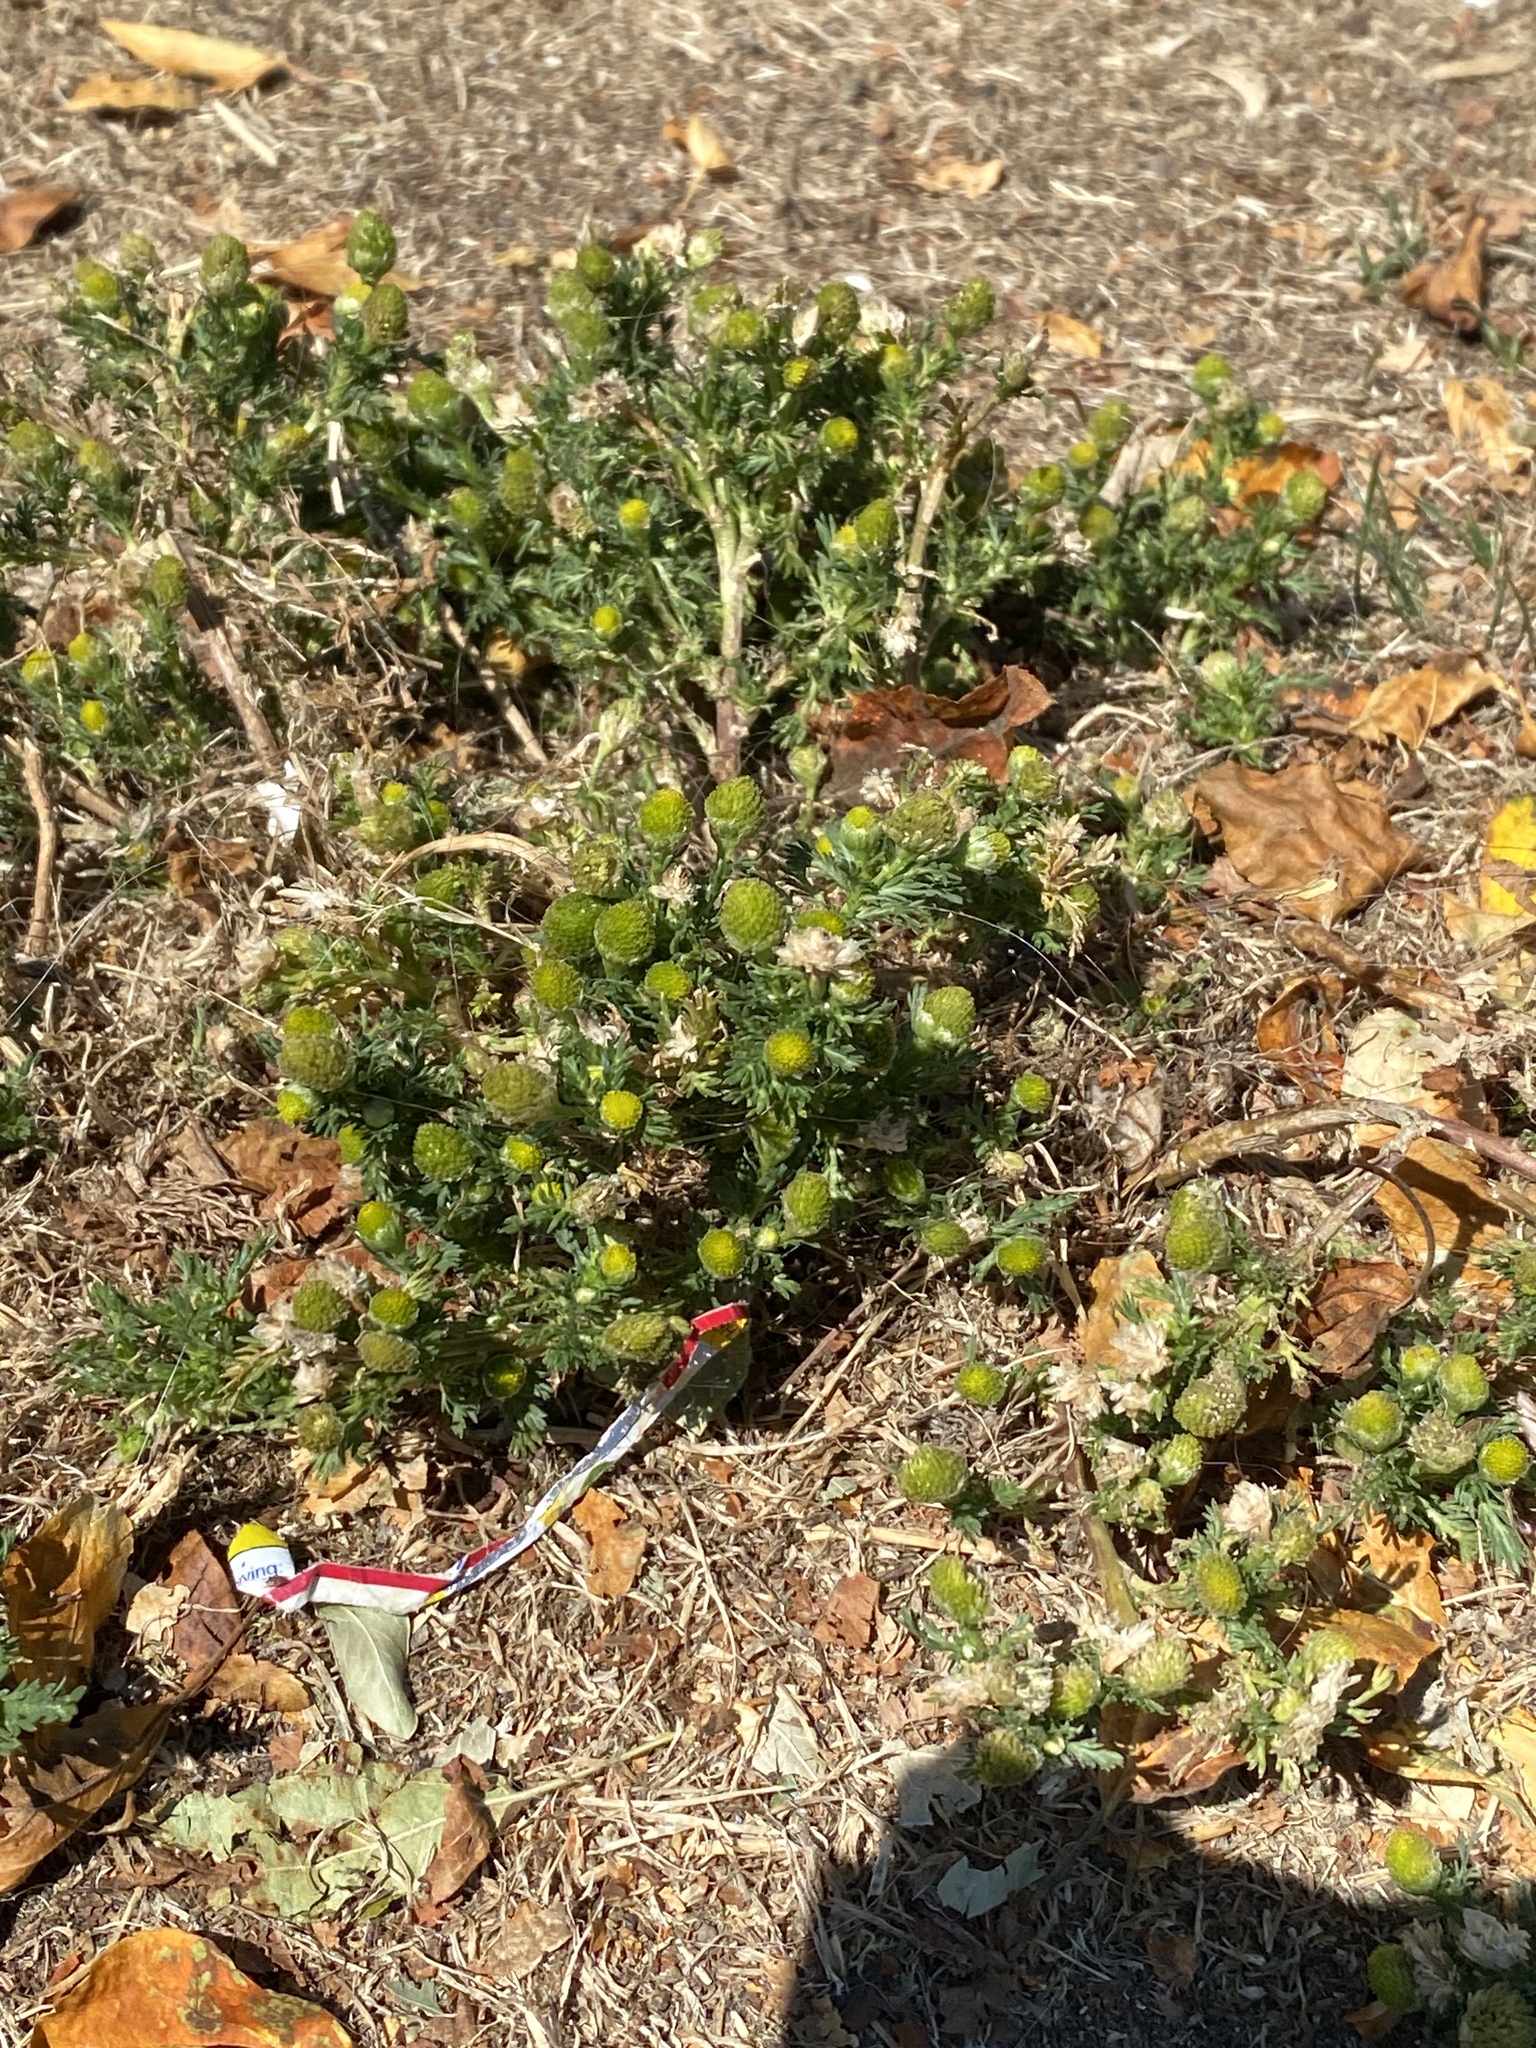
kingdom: Plantae
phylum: Tracheophyta
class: Magnoliopsida
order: Asterales
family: Asteraceae
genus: Matricaria
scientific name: Matricaria discoidea
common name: Disc mayweed
